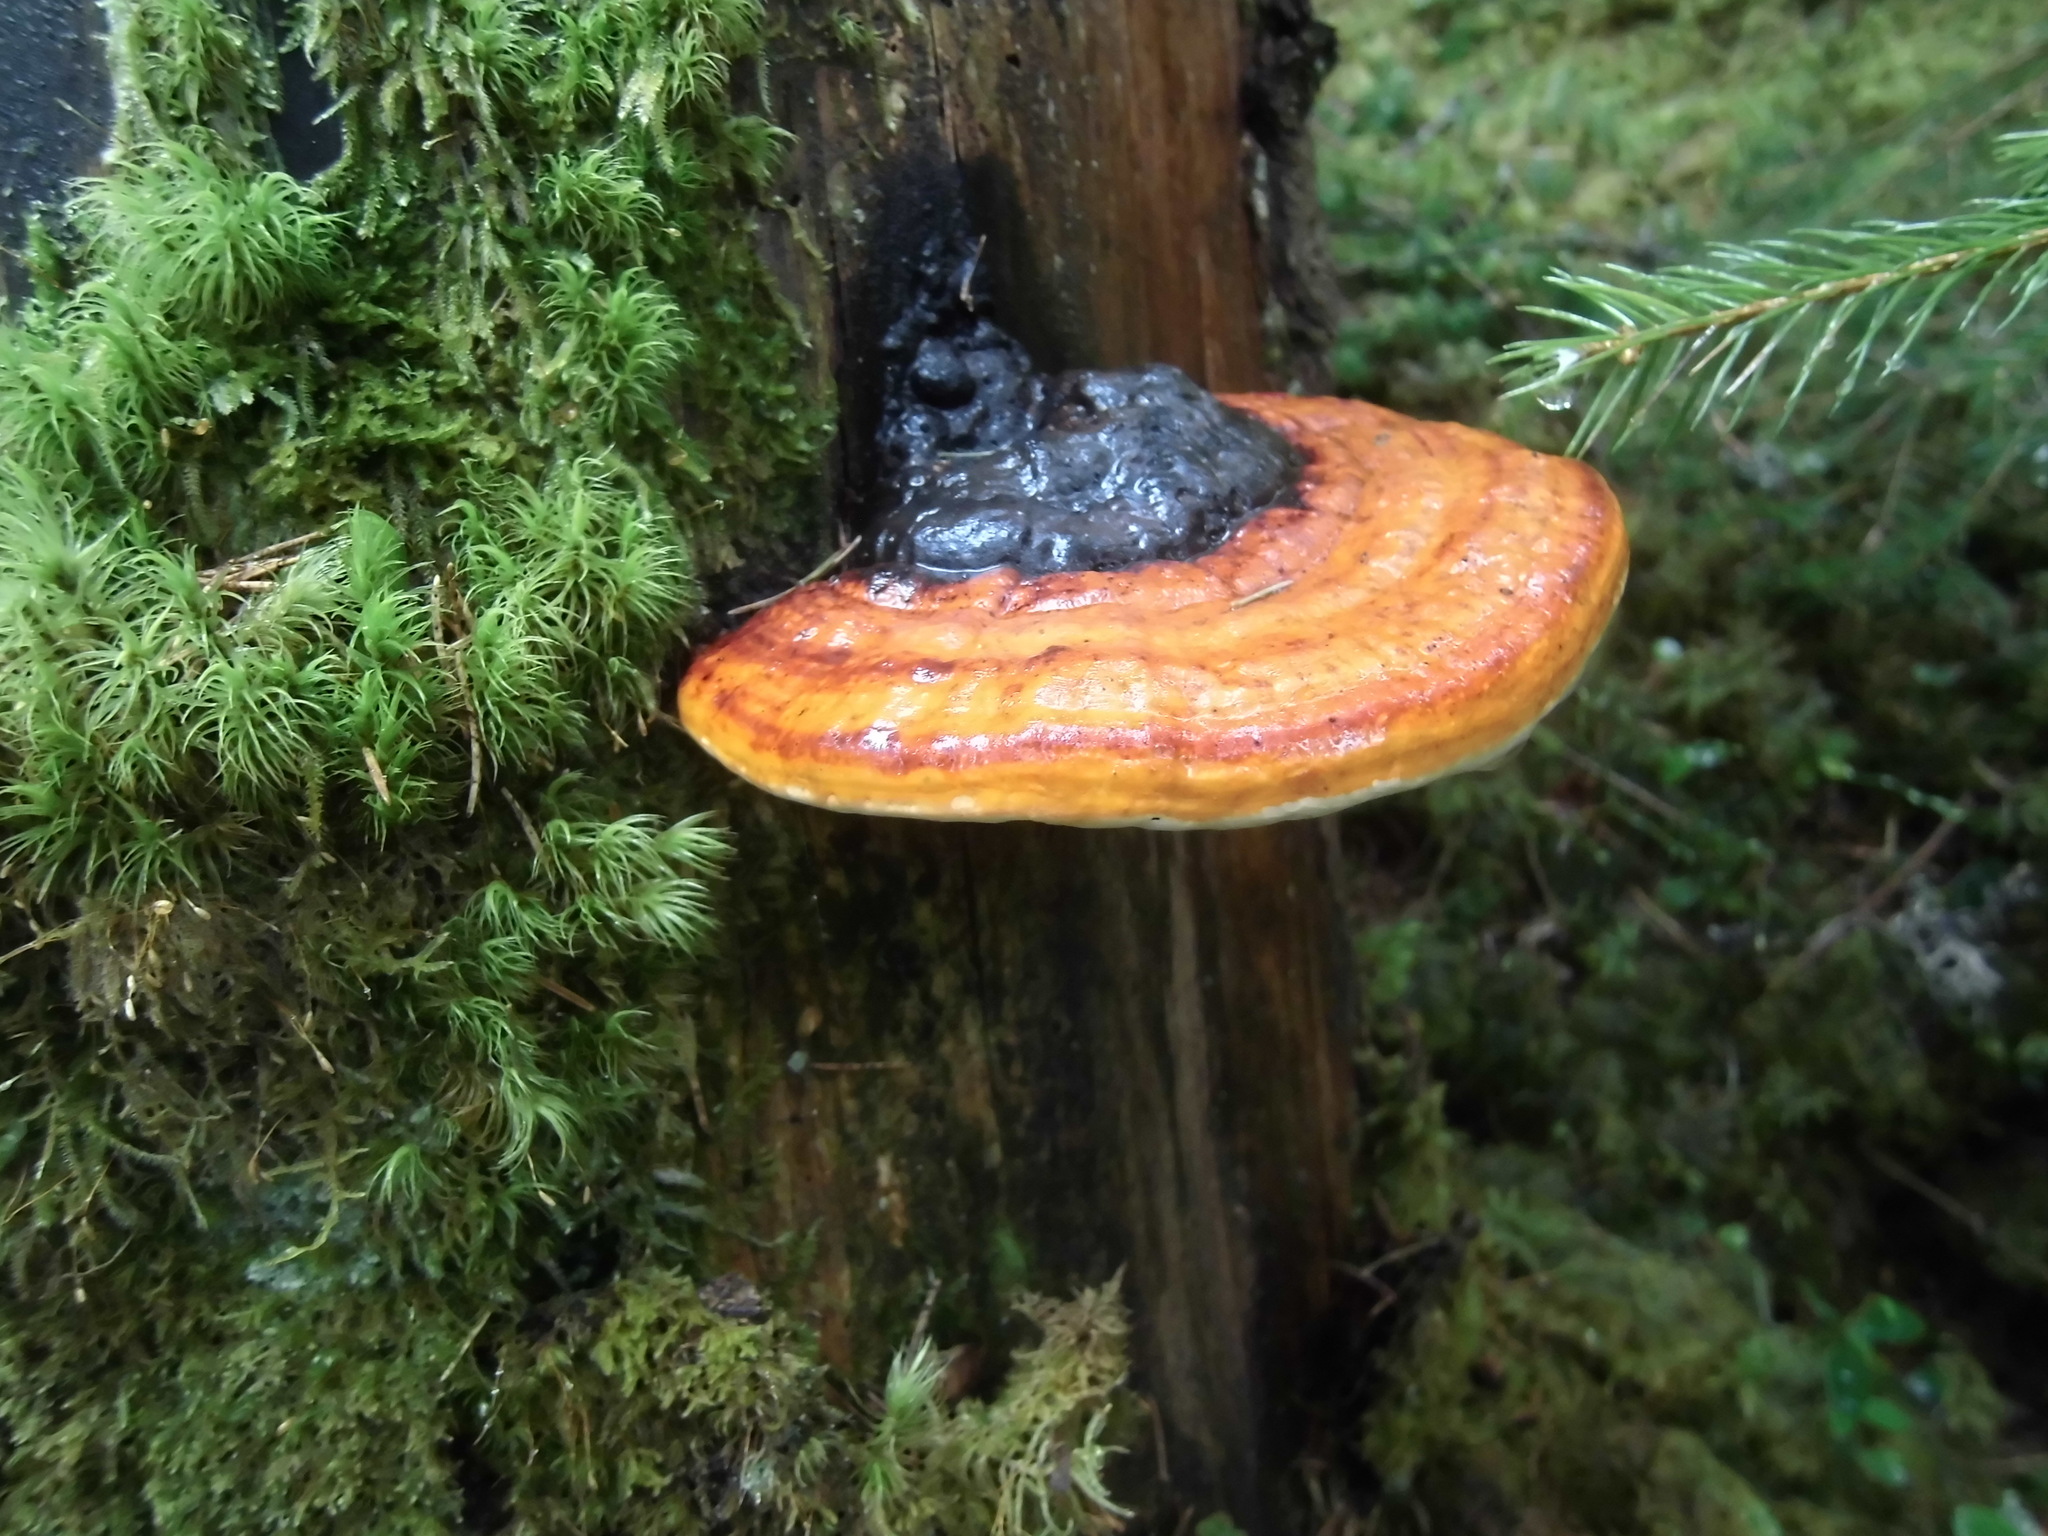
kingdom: Fungi
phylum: Basidiomycota
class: Agaricomycetes
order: Polyporales
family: Fomitopsidaceae
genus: Fomitopsis
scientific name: Fomitopsis pinicola
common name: Red-belted bracket
